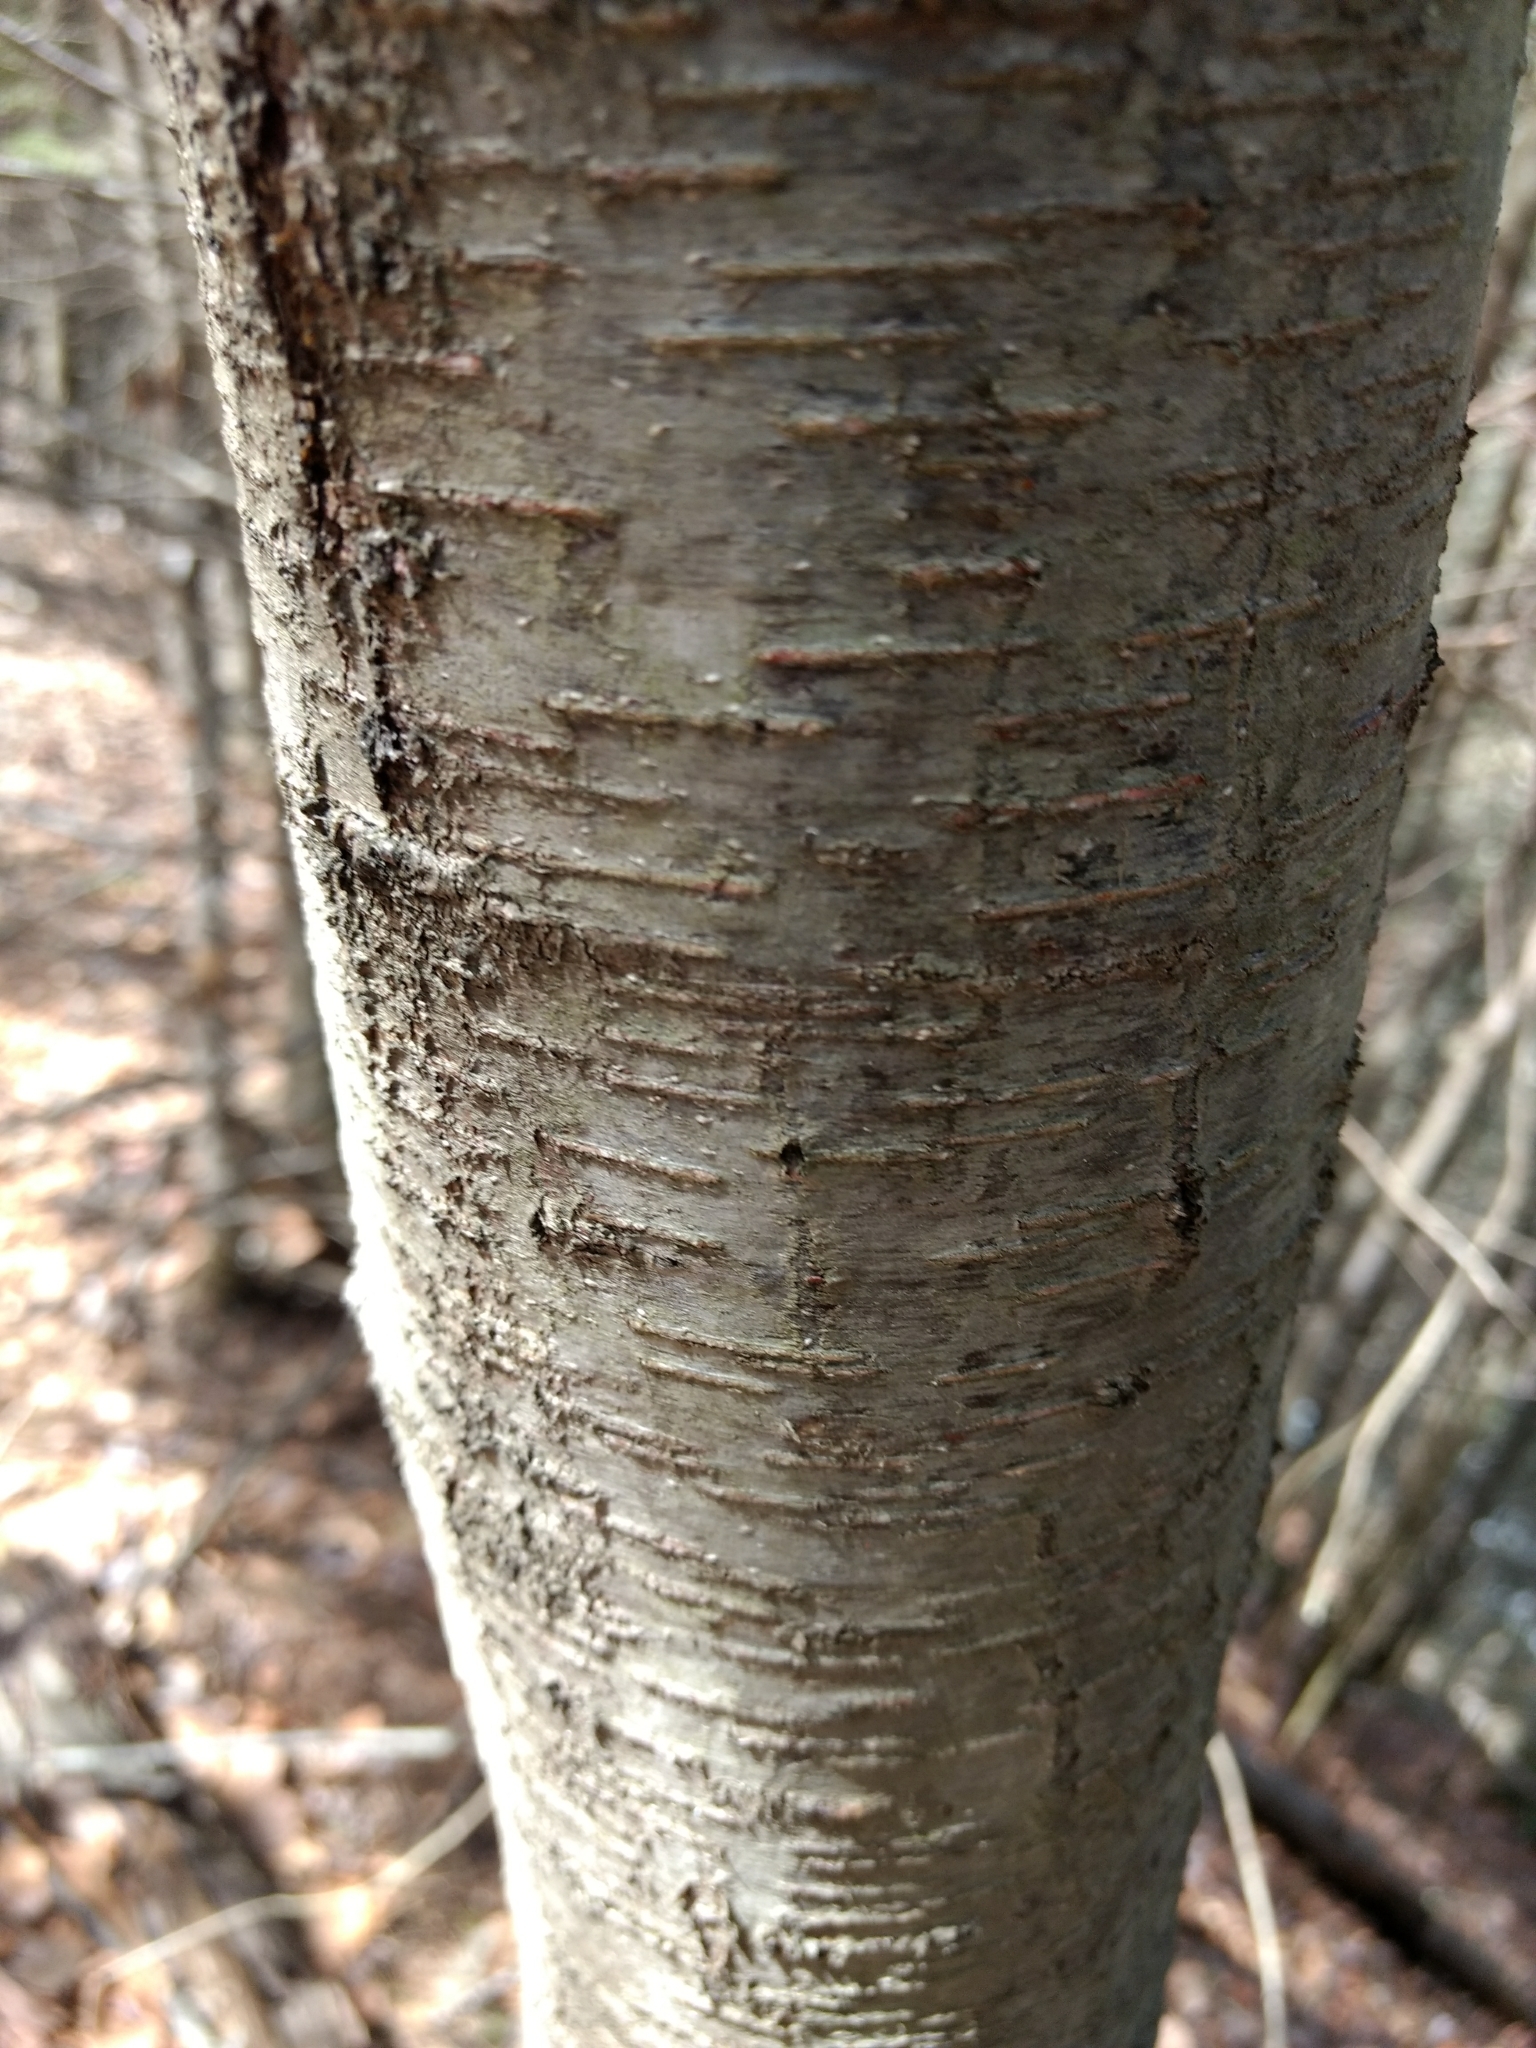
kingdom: Plantae
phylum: Tracheophyta
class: Magnoliopsida
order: Fagales
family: Betulaceae
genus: Betula
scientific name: Betula lenta
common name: Black birch
